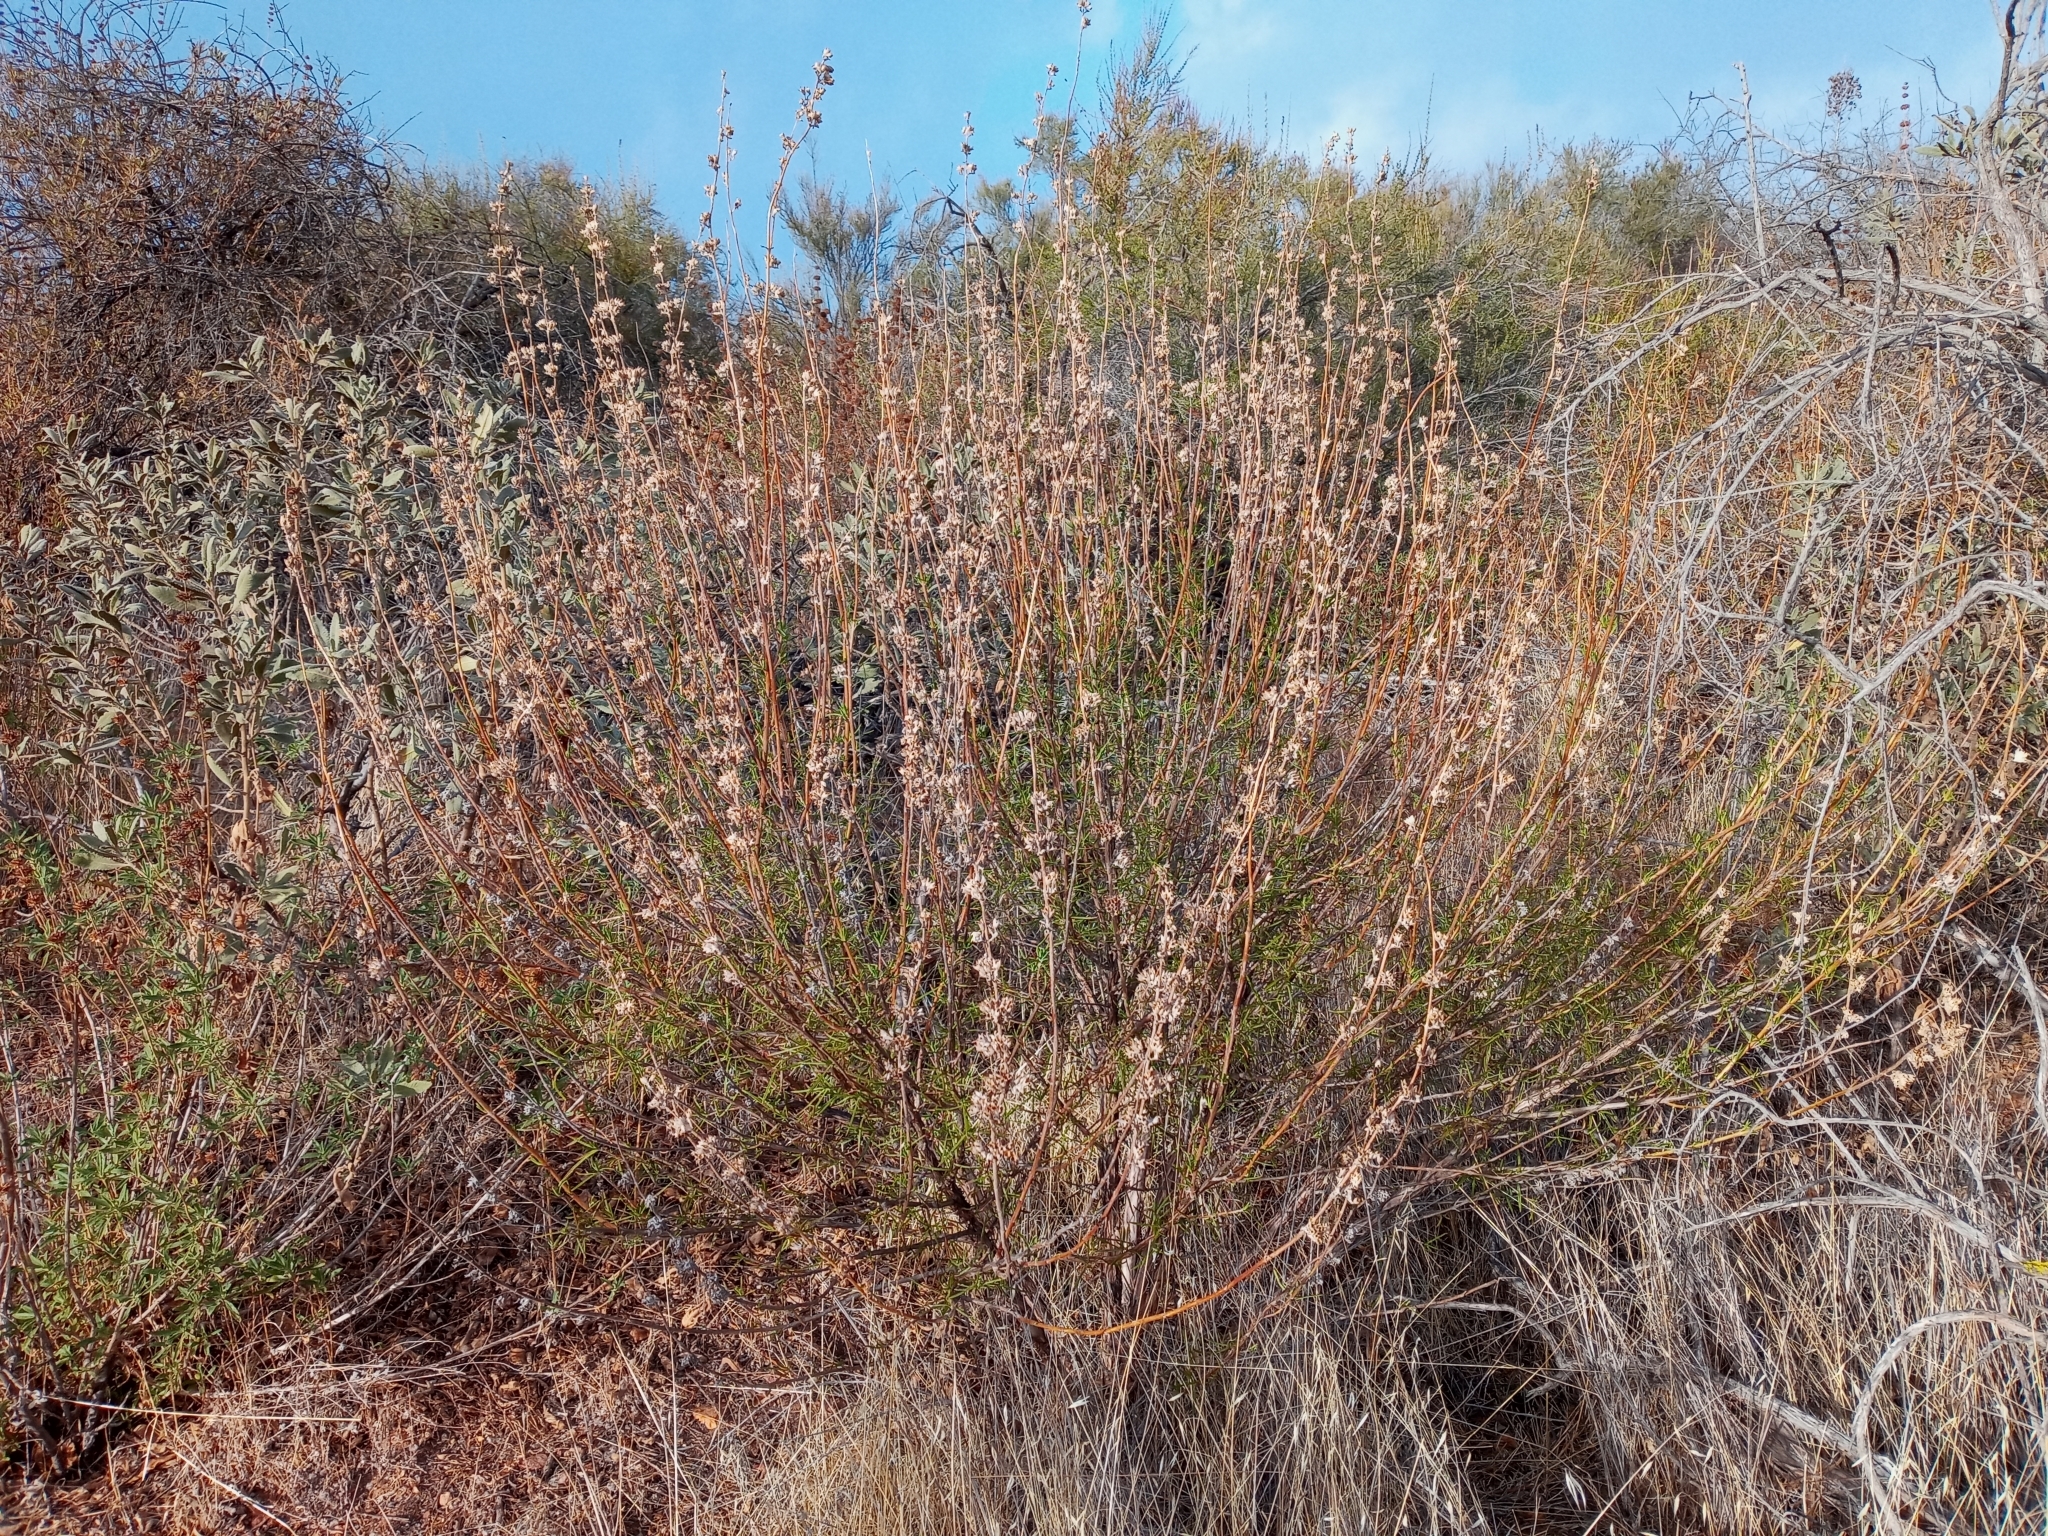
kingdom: Plantae
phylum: Tracheophyta
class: Magnoliopsida
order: Lamiales
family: Lamiaceae
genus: Trichostema
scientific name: Trichostema lanatum
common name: Woolly bluecurls
